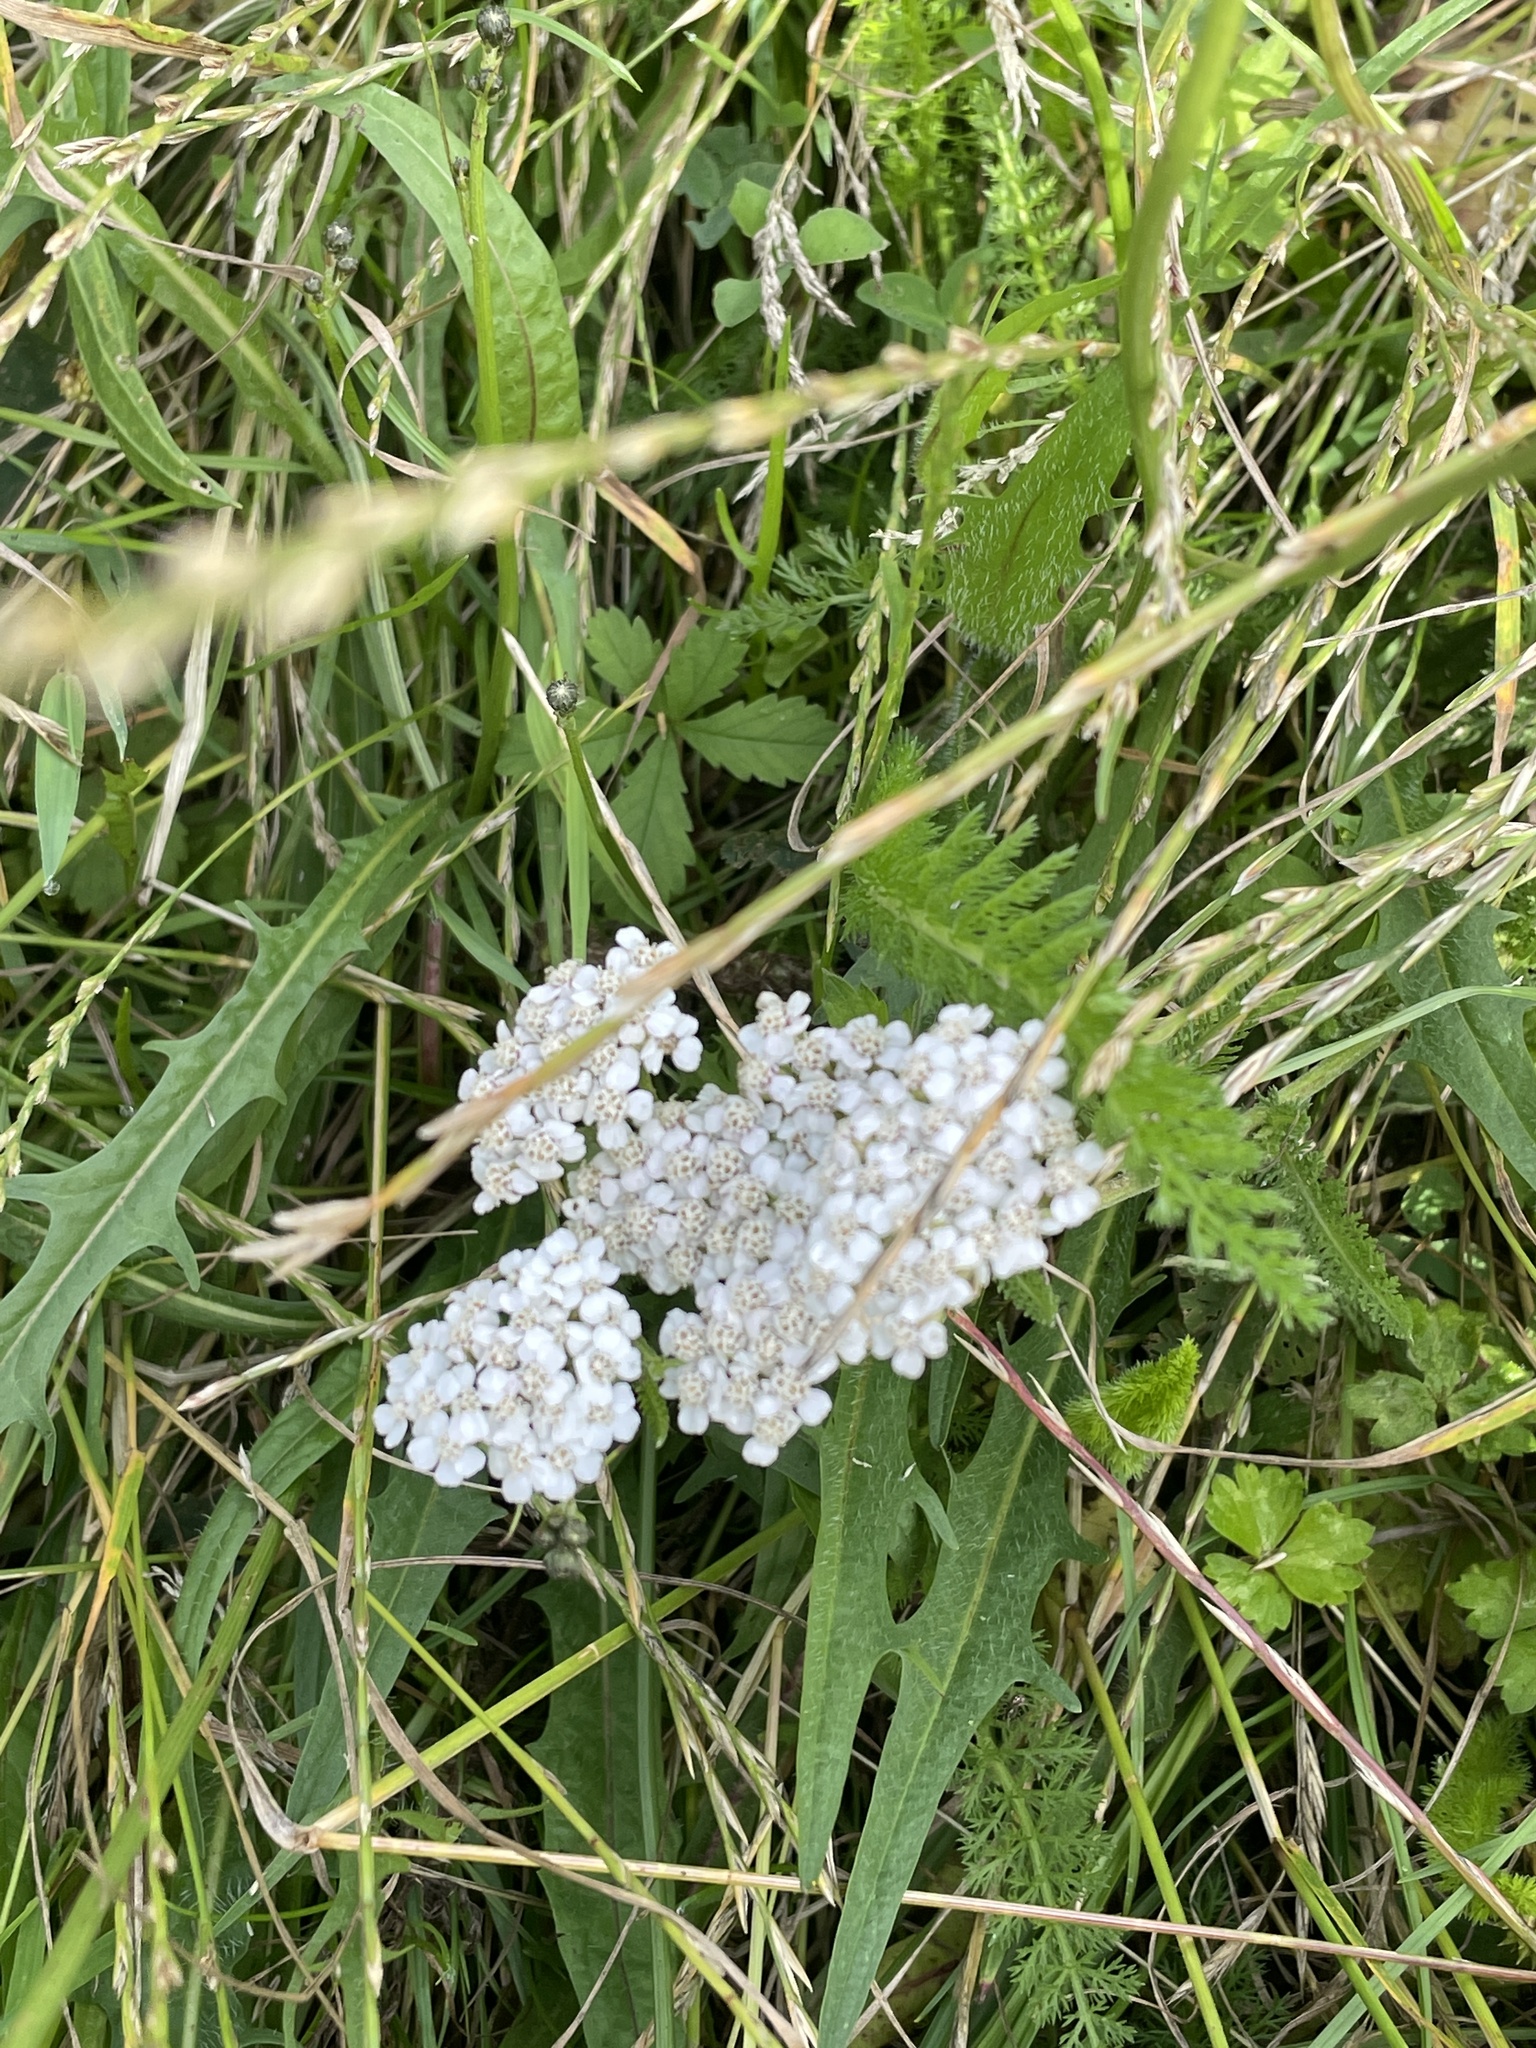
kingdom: Plantae
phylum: Tracheophyta
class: Magnoliopsida
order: Asterales
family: Asteraceae
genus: Achillea
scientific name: Achillea millefolium
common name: Yarrow
